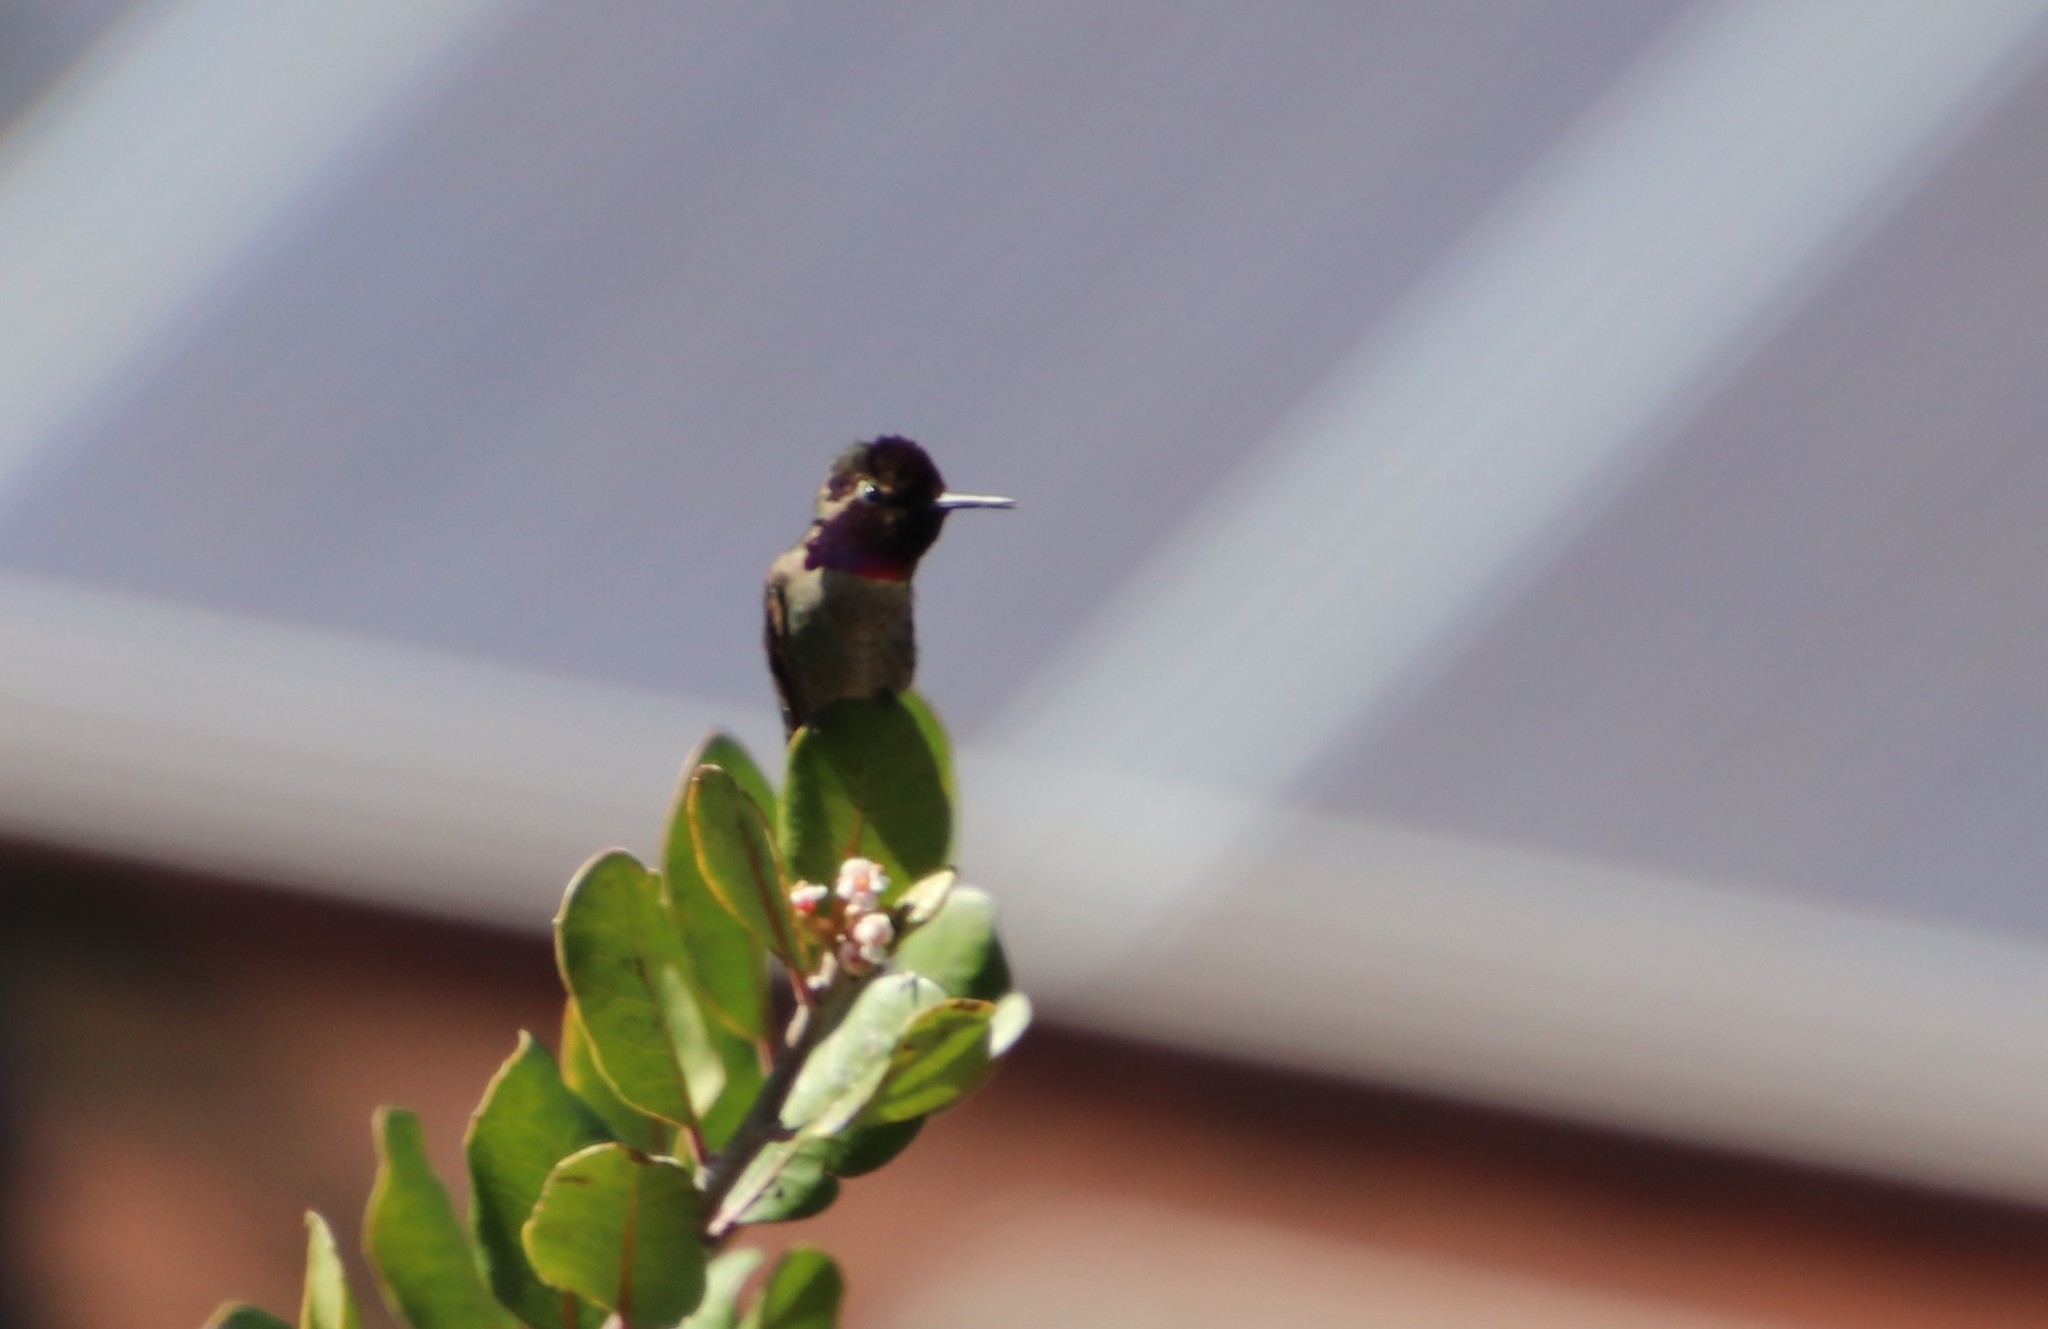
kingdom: Animalia
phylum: Chordata
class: Aves
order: Apodiformes
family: Trochilidae
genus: Calypte
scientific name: Calypte anna
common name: Anna's hummingbird
